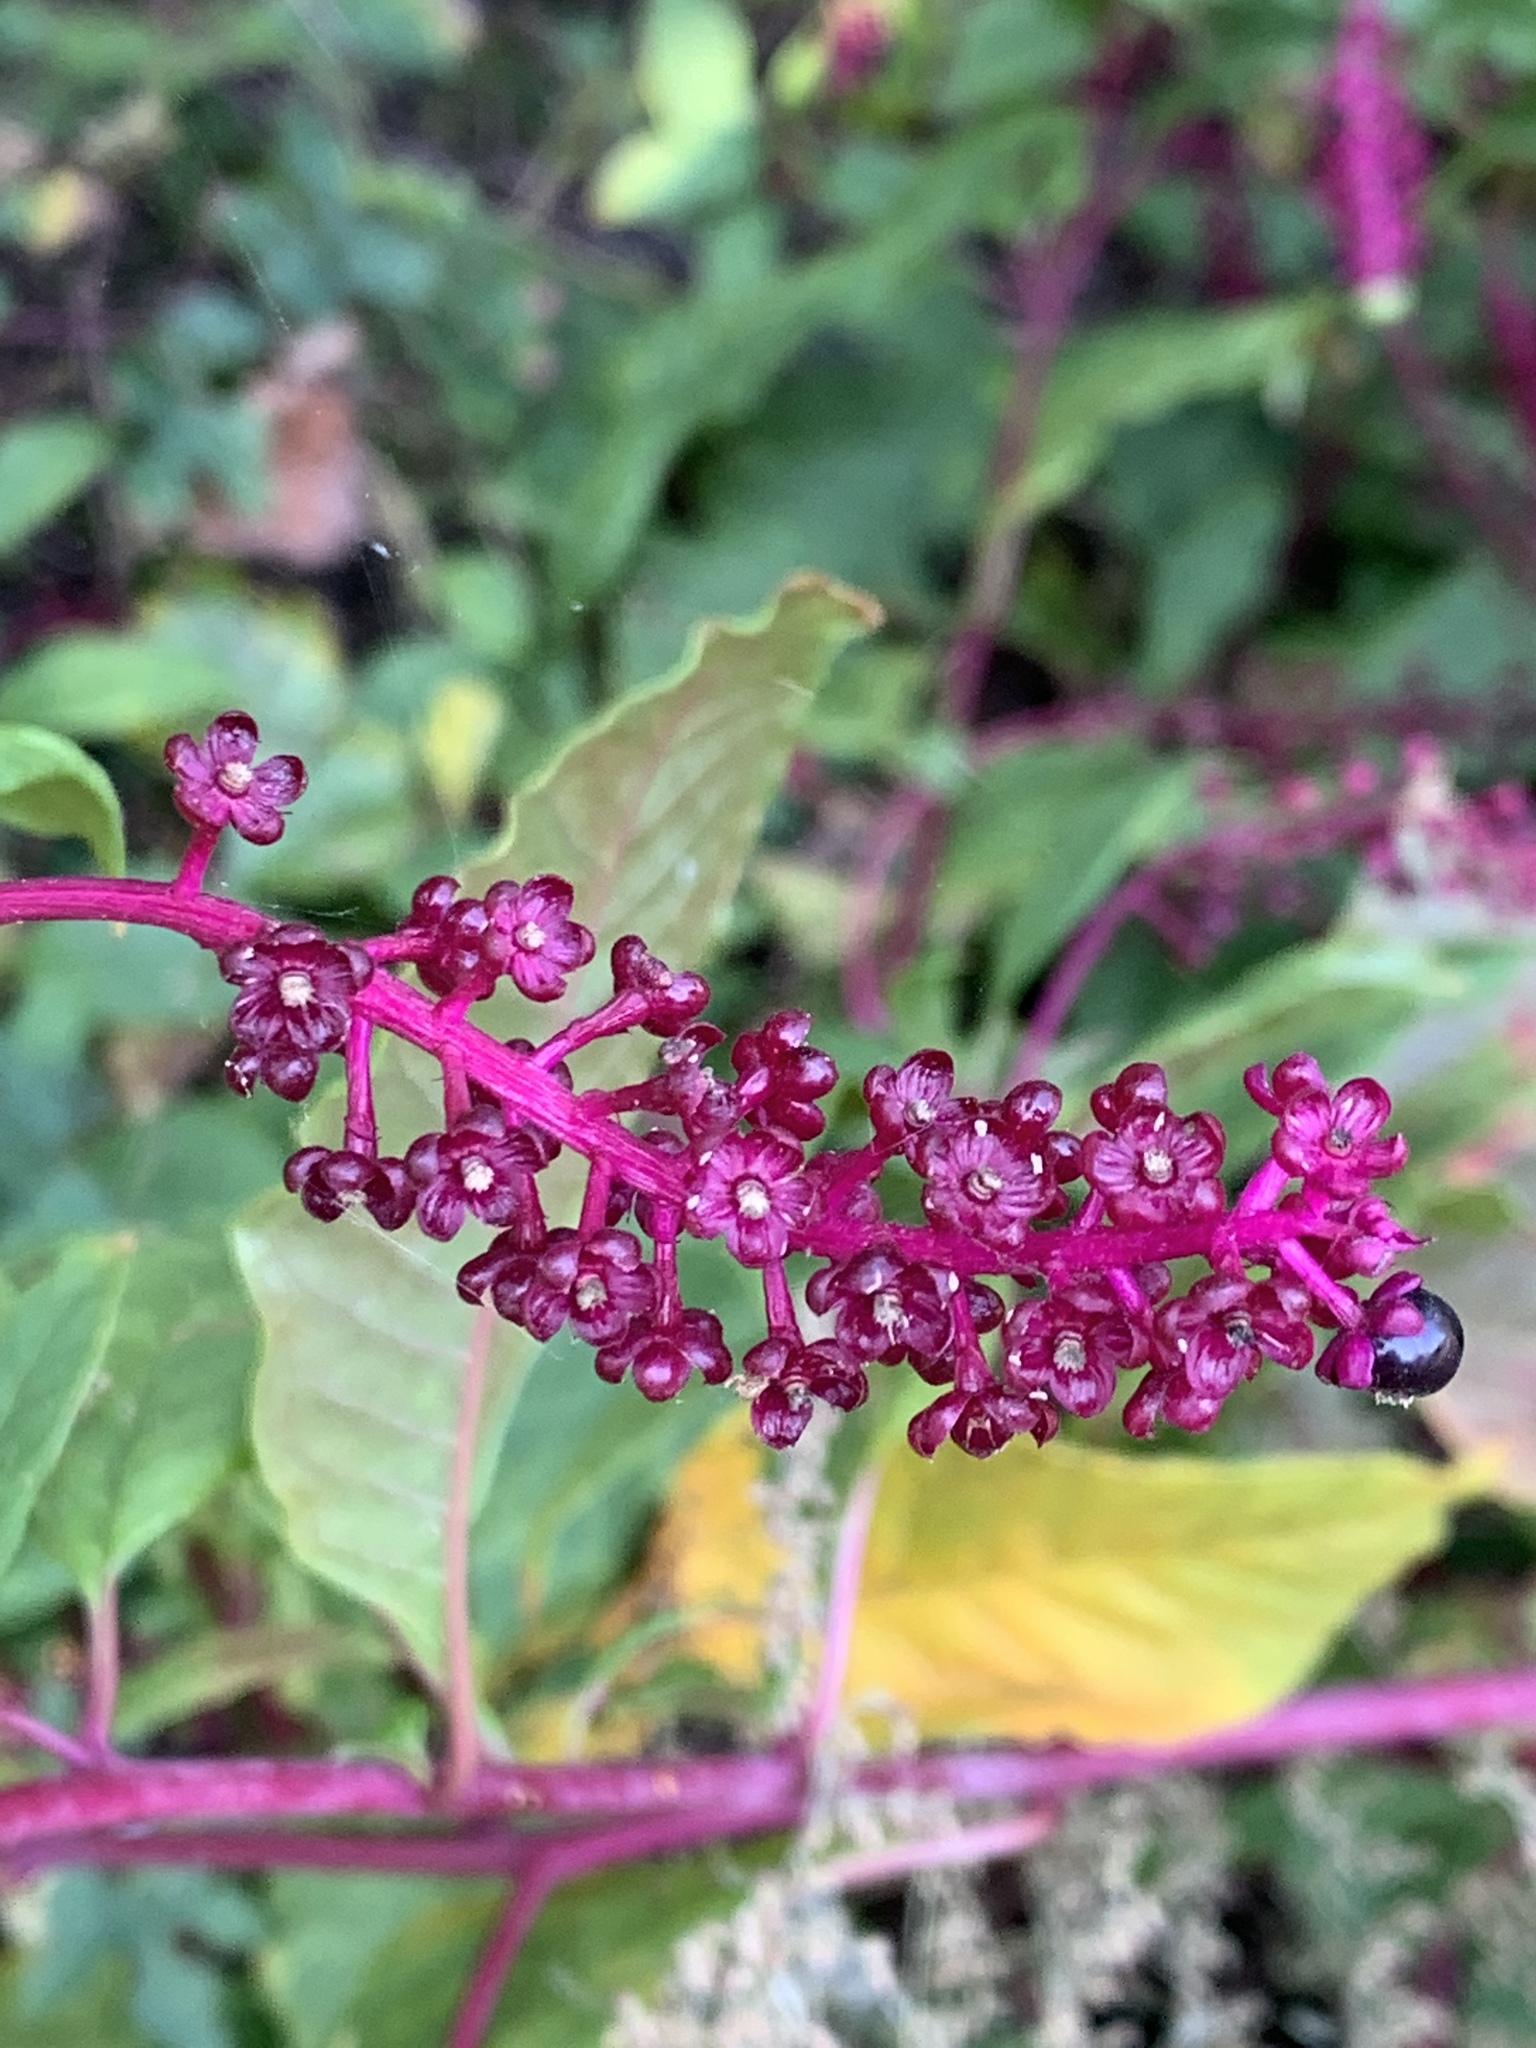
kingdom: Plantae
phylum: Tracheophyta
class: Magnoliopsida
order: Caryophyllales
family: Phytolaccaceae
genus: Phytolacca
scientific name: Phytolacca americana
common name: American pokeweed
